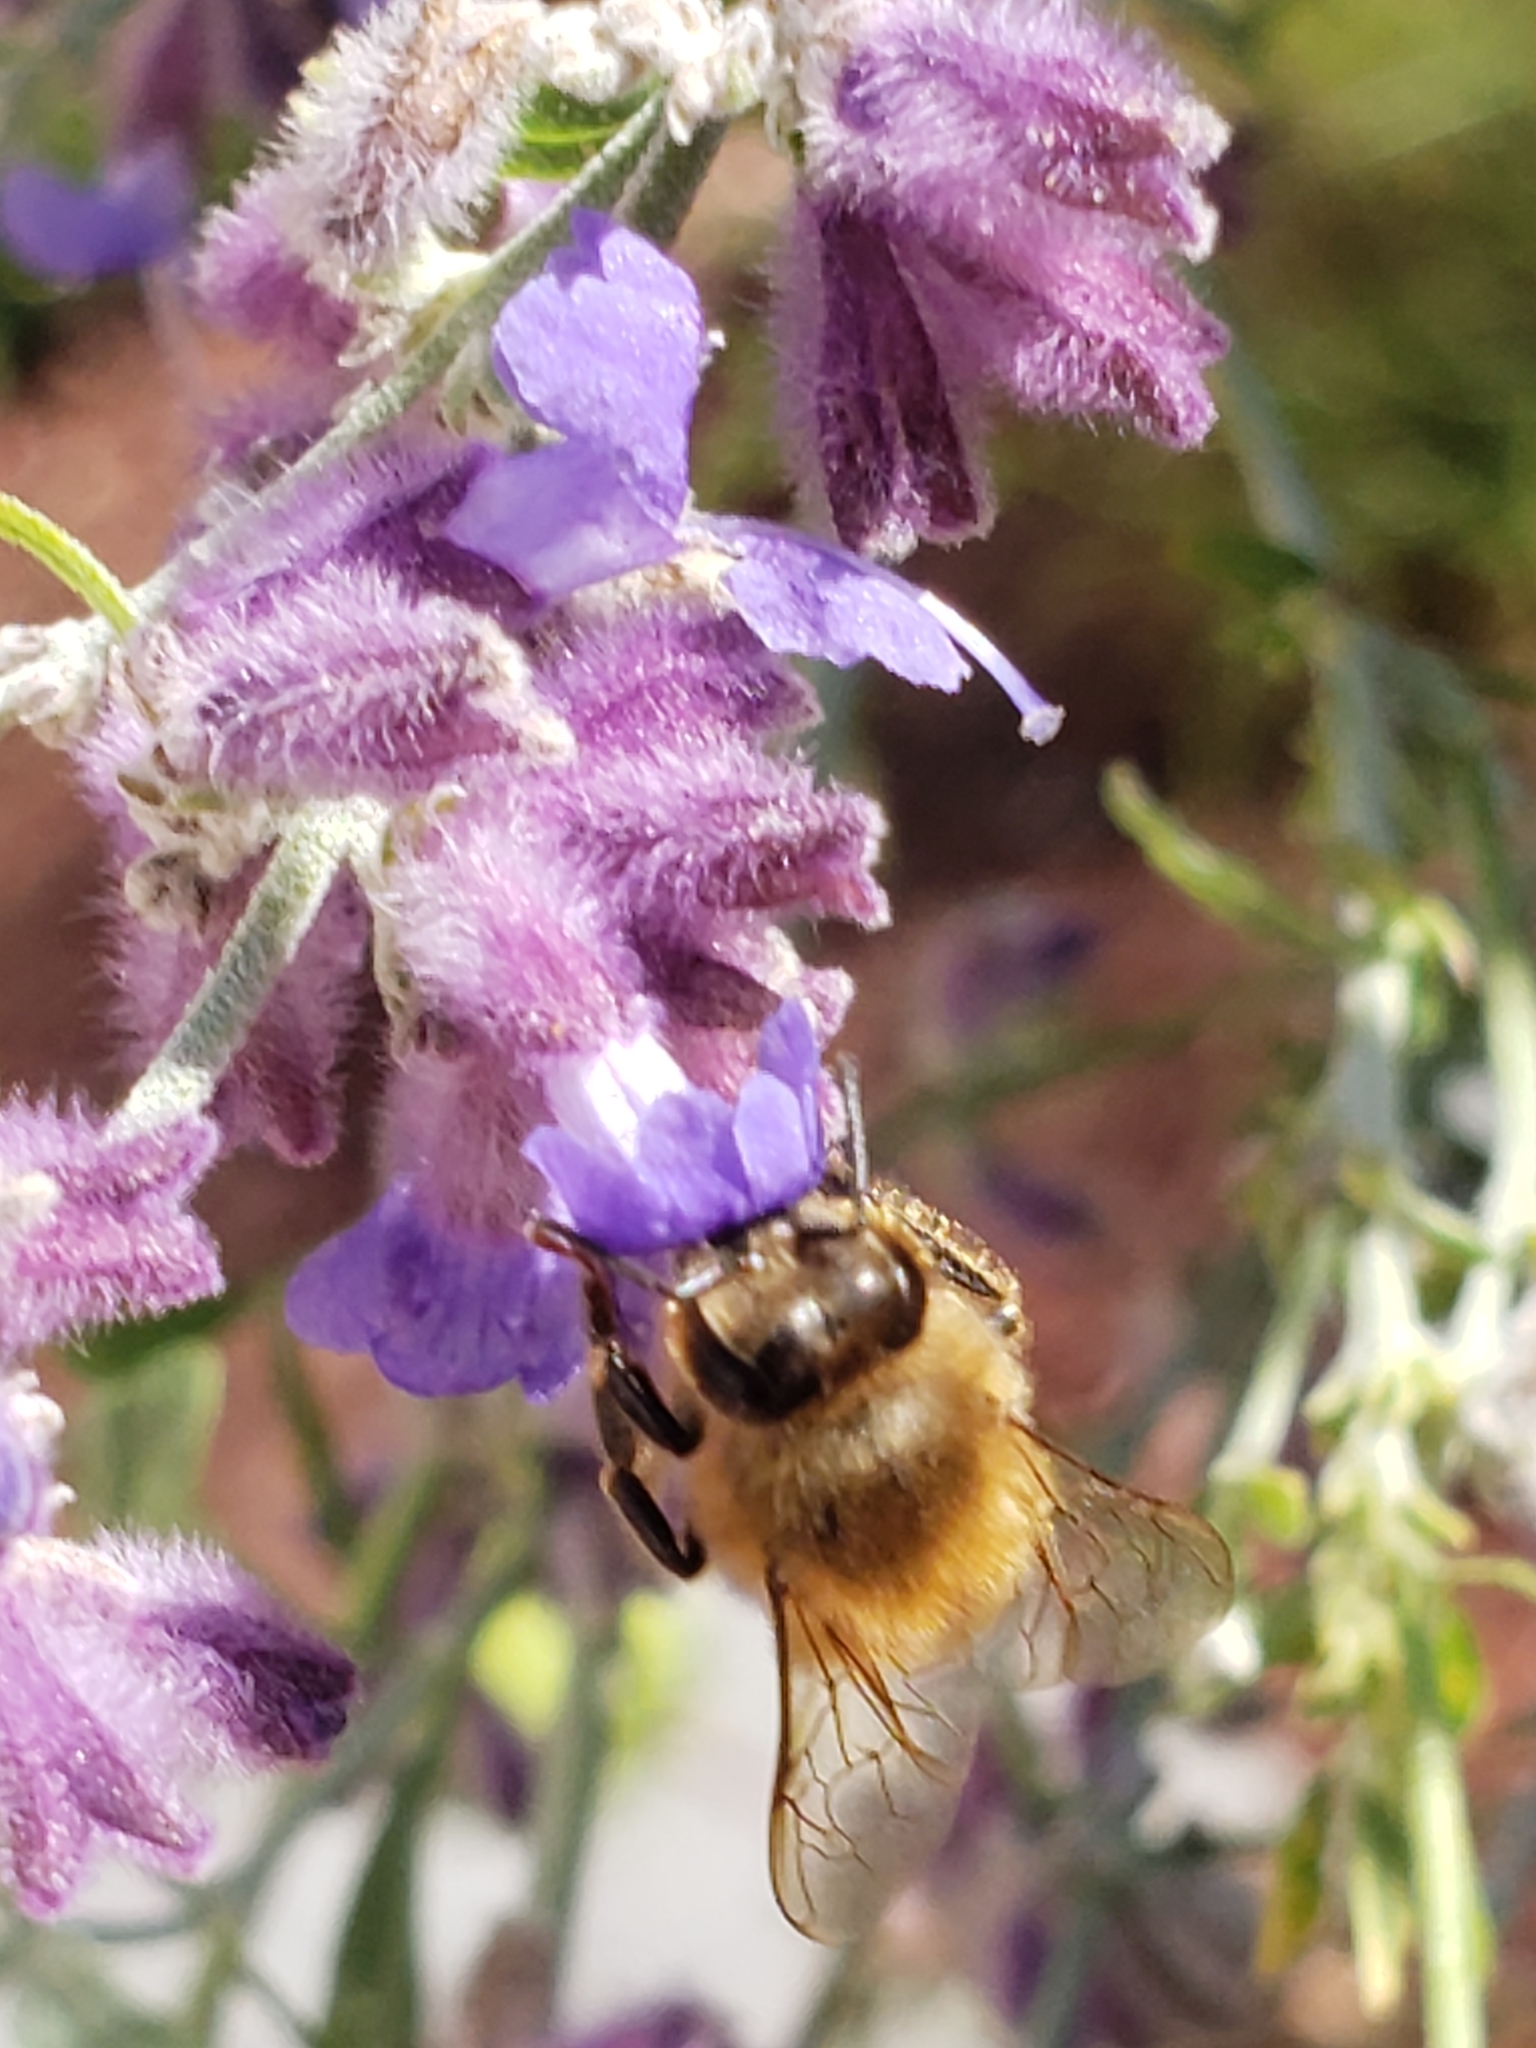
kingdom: Animalia
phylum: Arthropoda
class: Insecta
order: Hymenoptera
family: Apidae
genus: Apis
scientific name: Apis mellifera
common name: Honey bee
